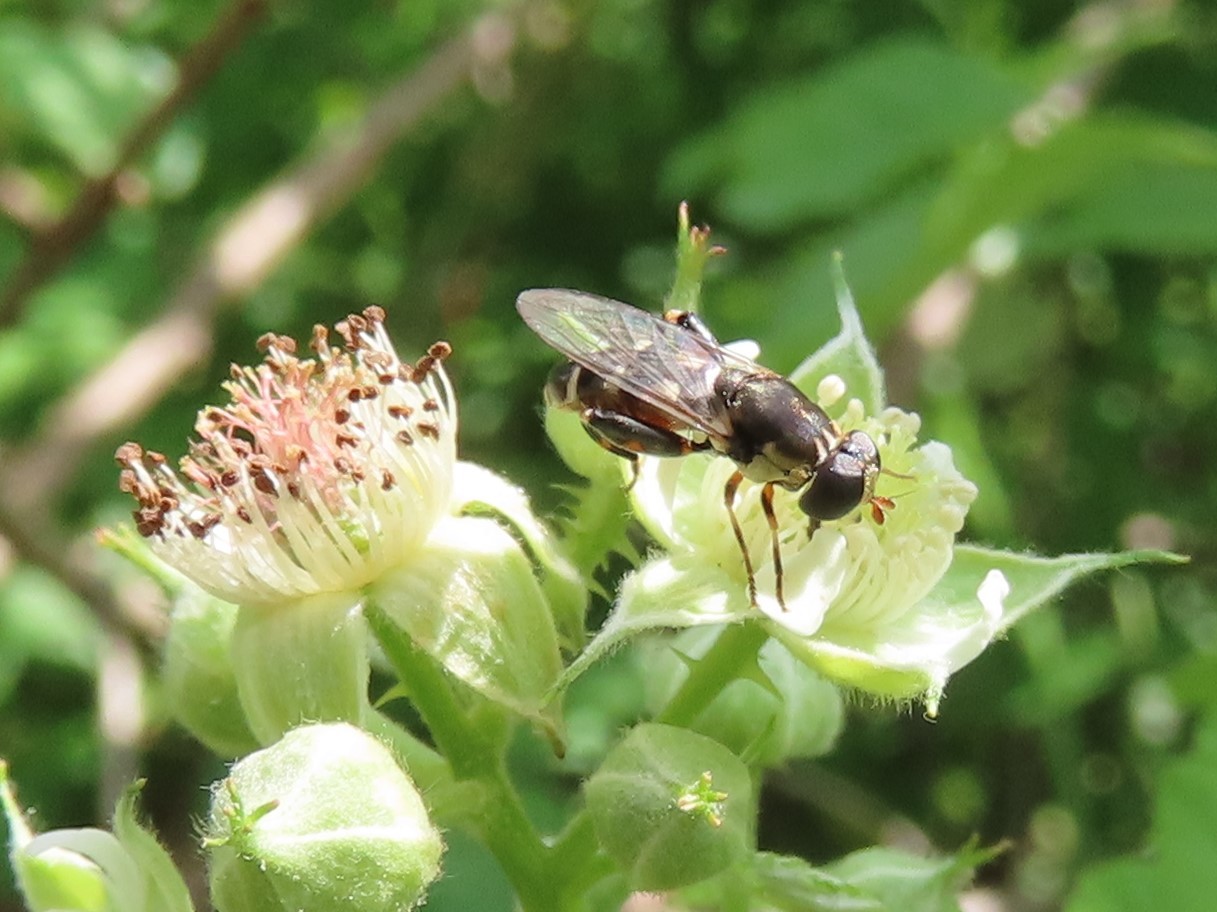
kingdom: Animalia
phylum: Arthropoda
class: Insecta
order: Diptera
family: Syrphidae
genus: Syritta
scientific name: Syritta pipiens
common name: Hover fly
